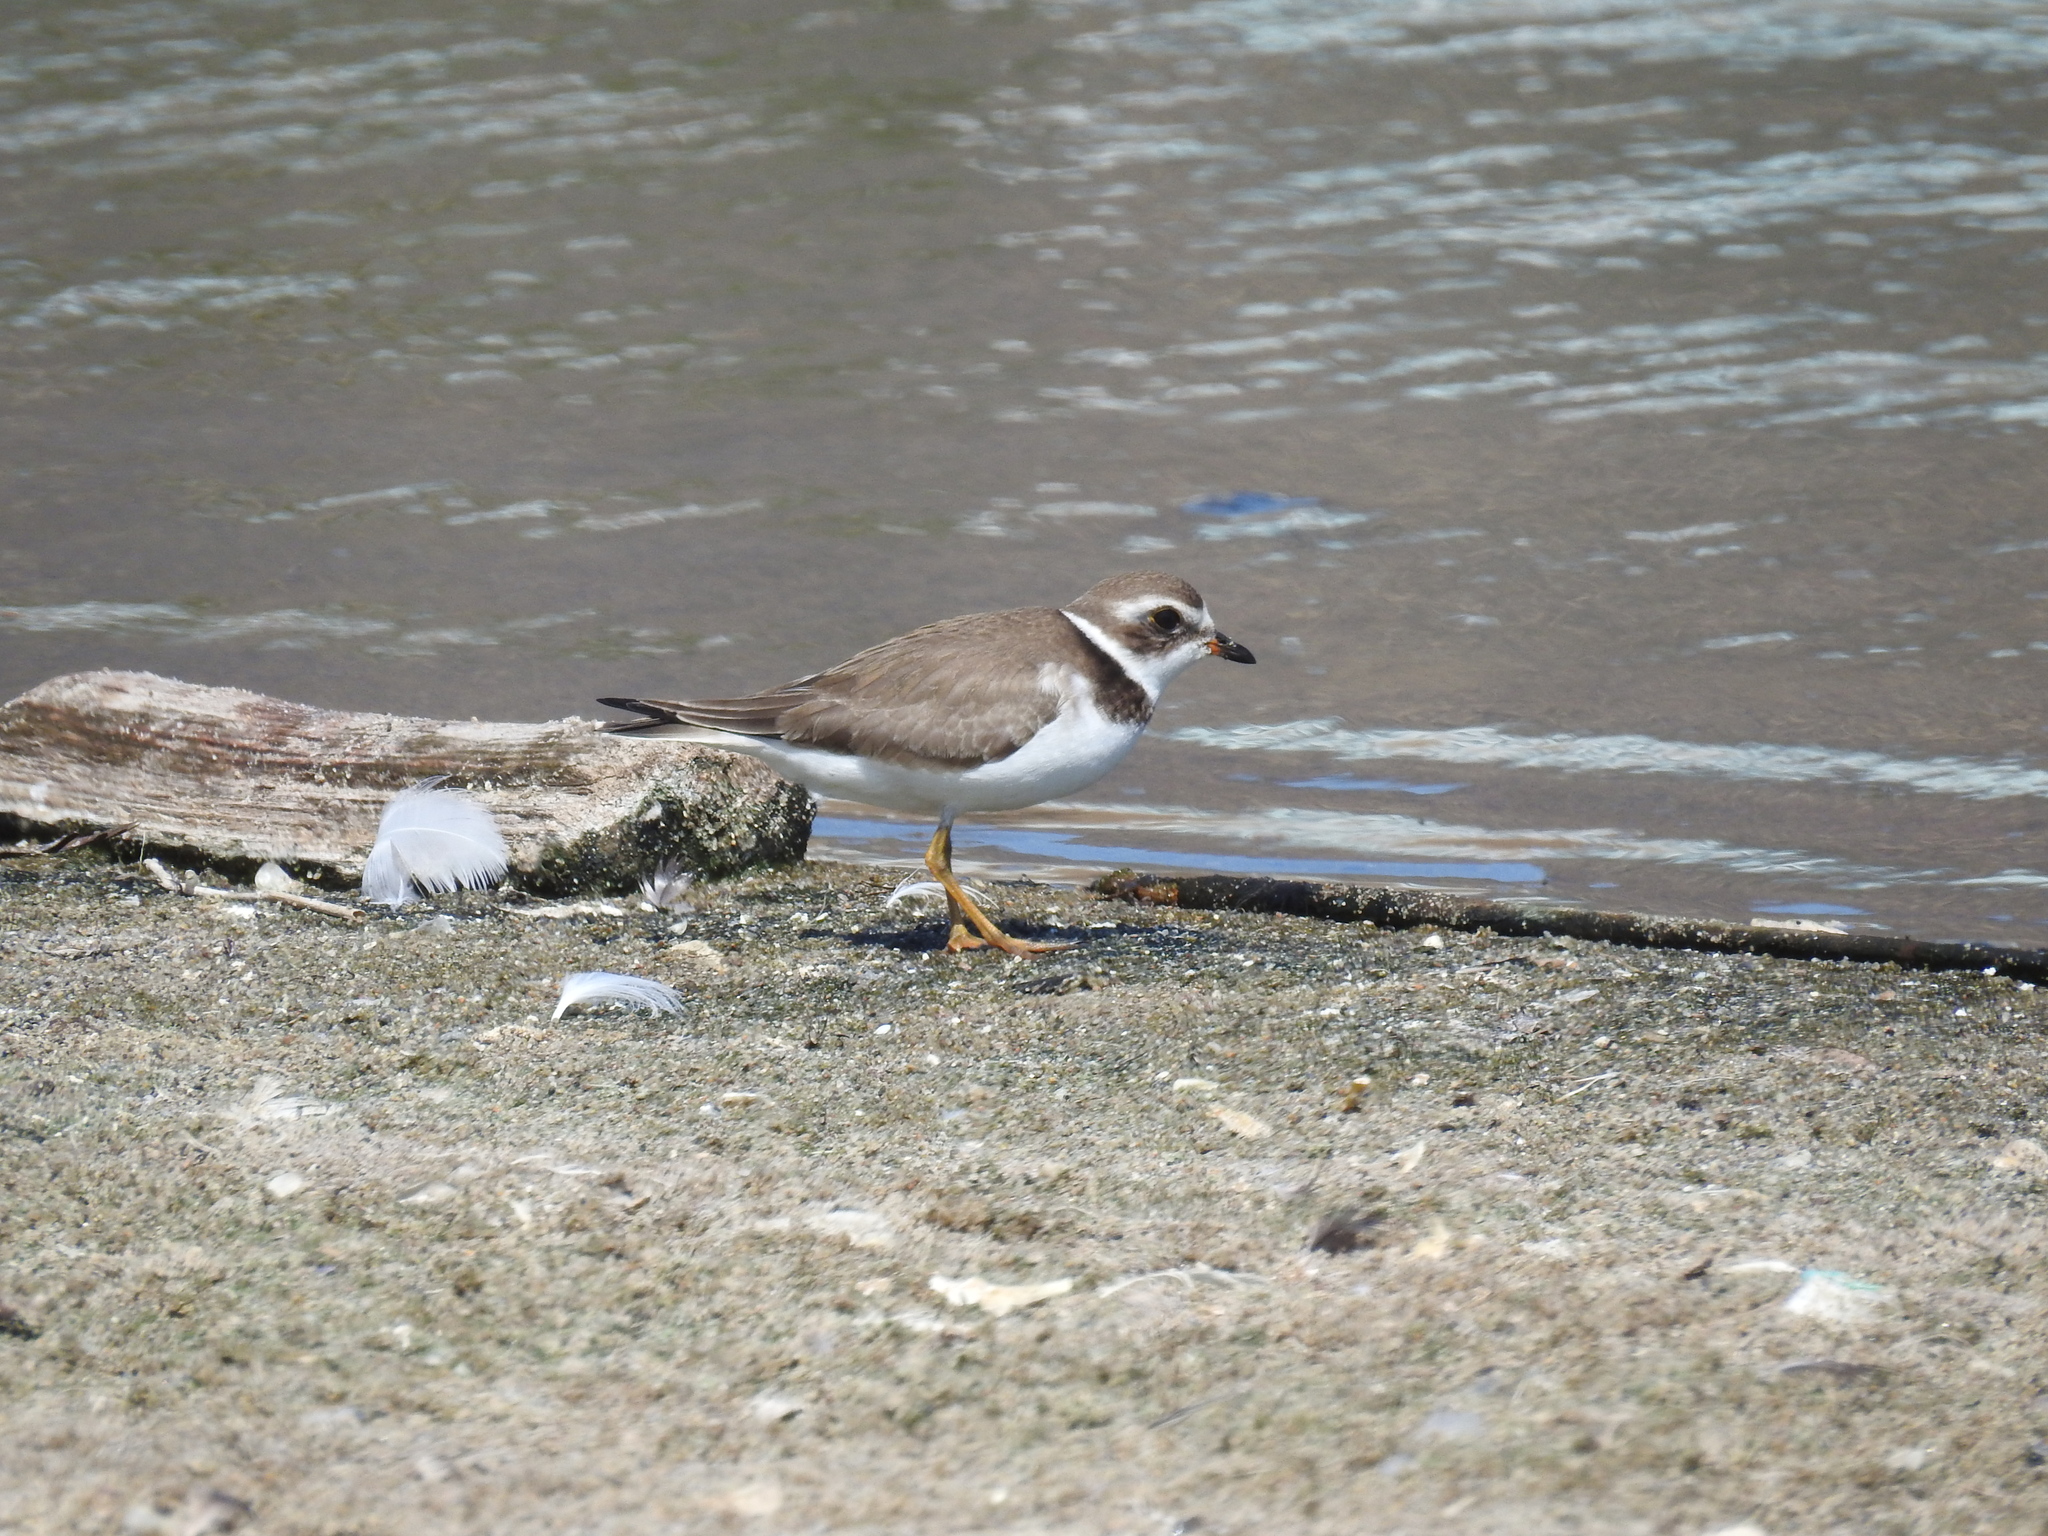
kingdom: Animalia
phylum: Chordata
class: Aves
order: Charadriiformes
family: Charadriidae
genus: Charadrius
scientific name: Charadrius semipalmatus
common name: Semipalmated plover
